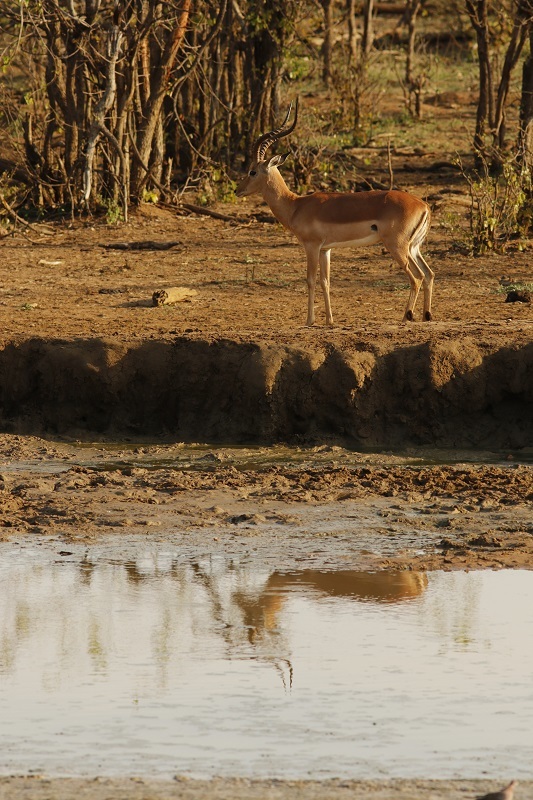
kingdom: Animalia
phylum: Chordata
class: Mammalia
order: Artiodactyla
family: Bovidae
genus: Aepyceros
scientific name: Aepyceros melampus
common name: Impala
